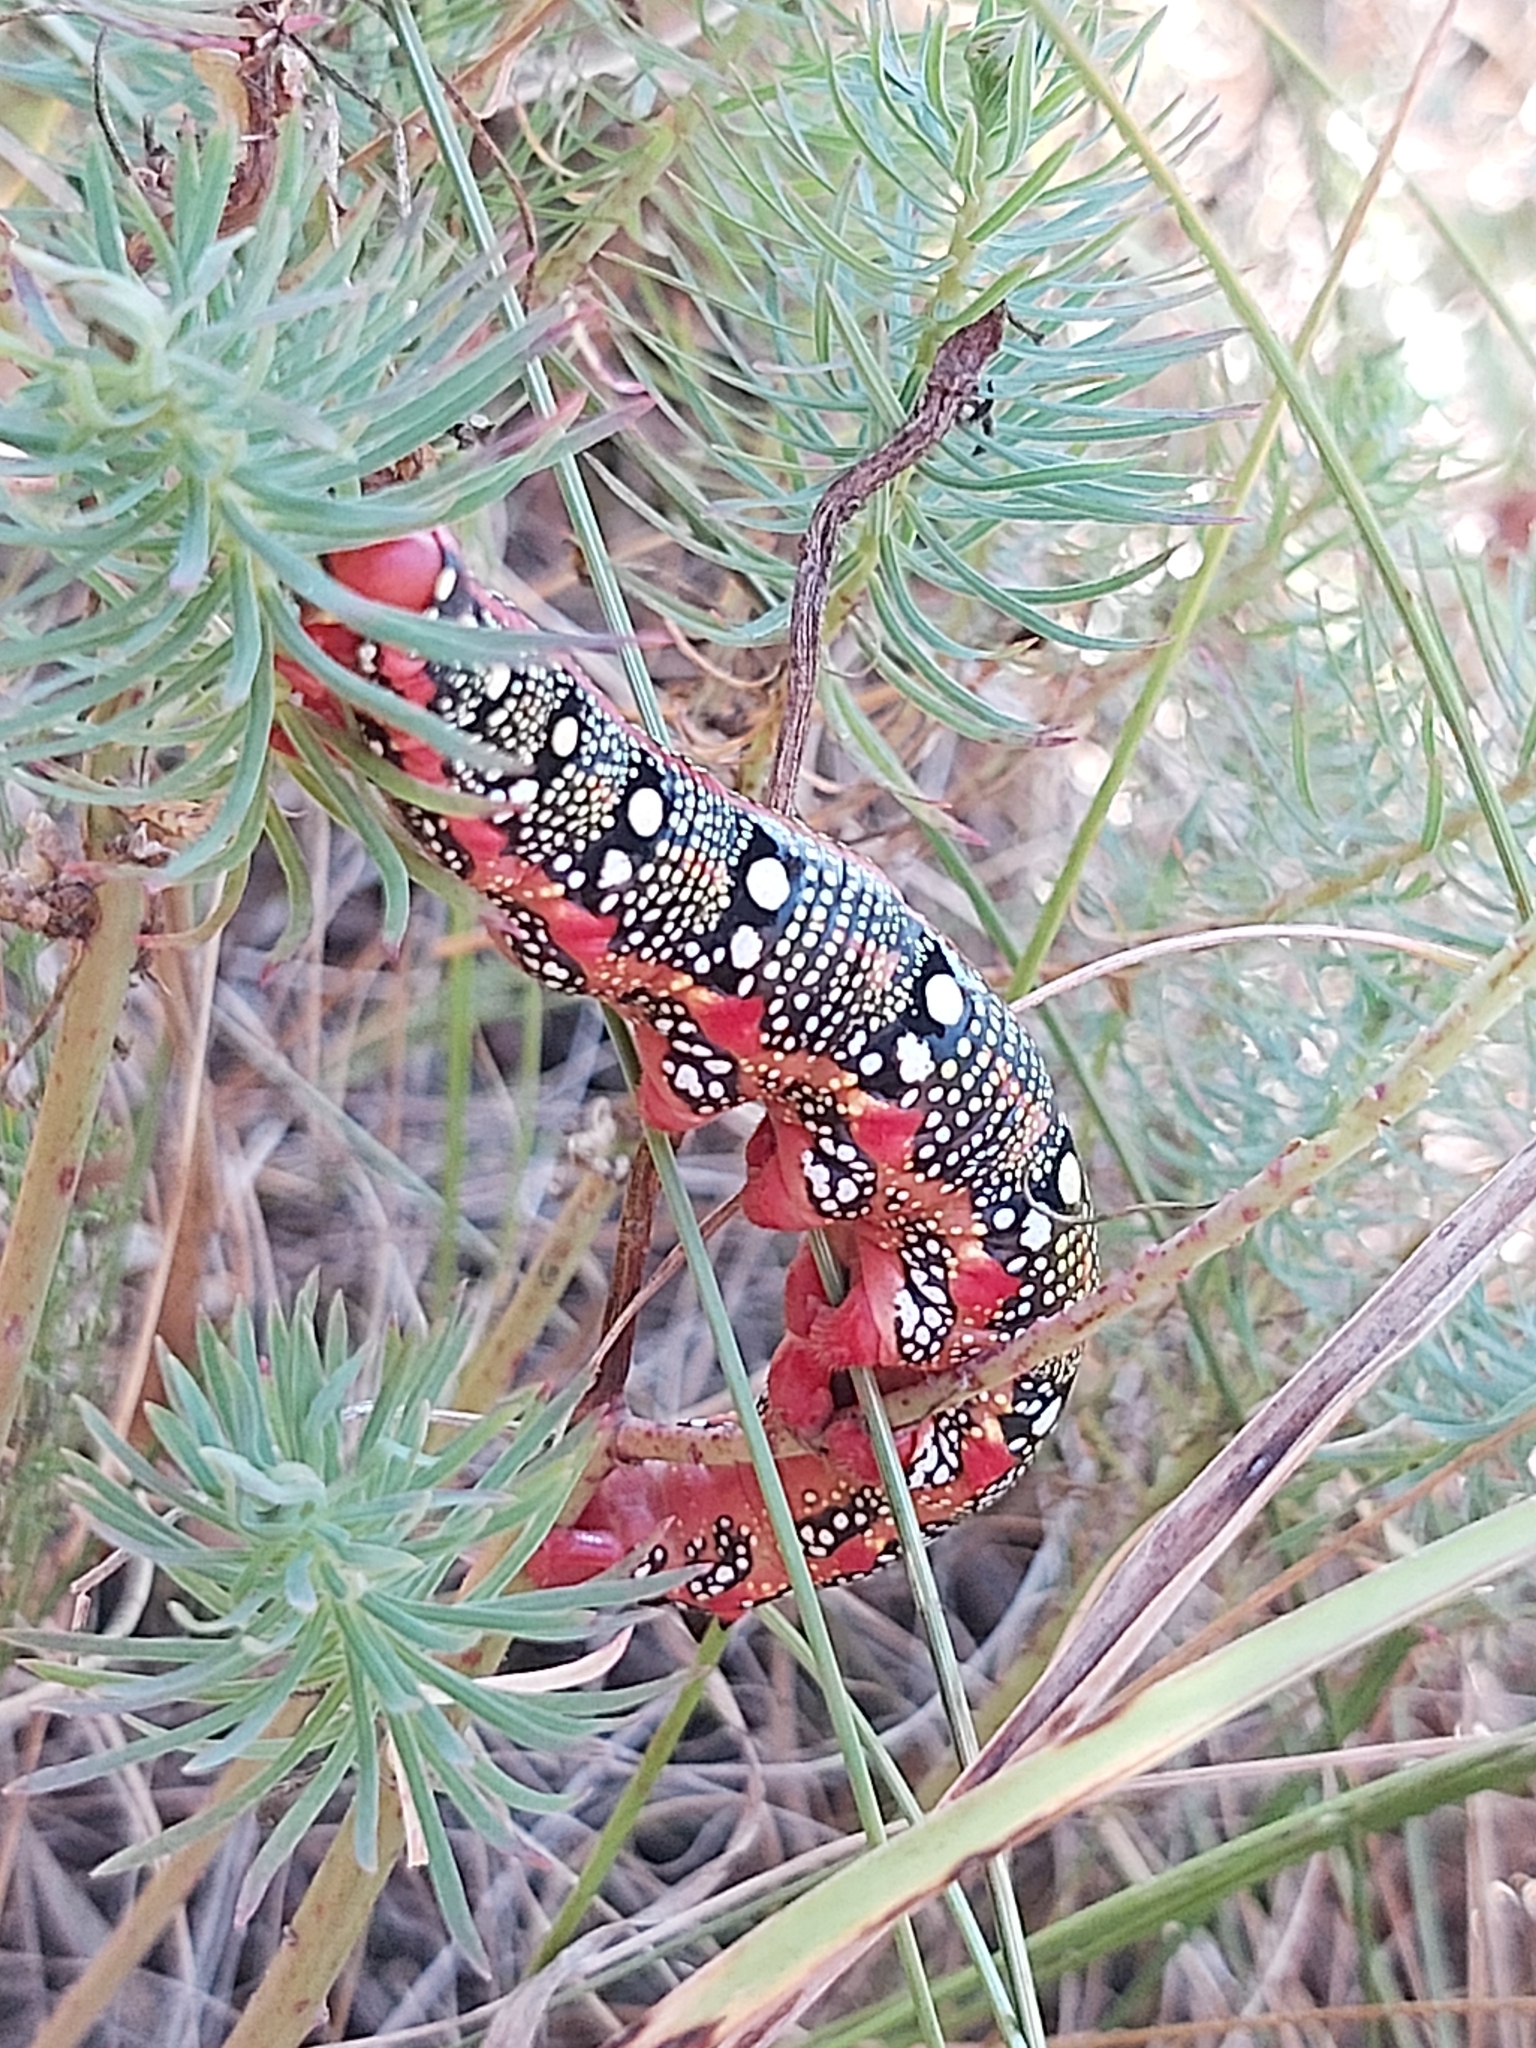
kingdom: Animalia
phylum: Arthropoda
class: Insecta
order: Lepidoptera
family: Sphingidae
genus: Hyles
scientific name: Hyles euphorbiae
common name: Spurge hawk-moth
